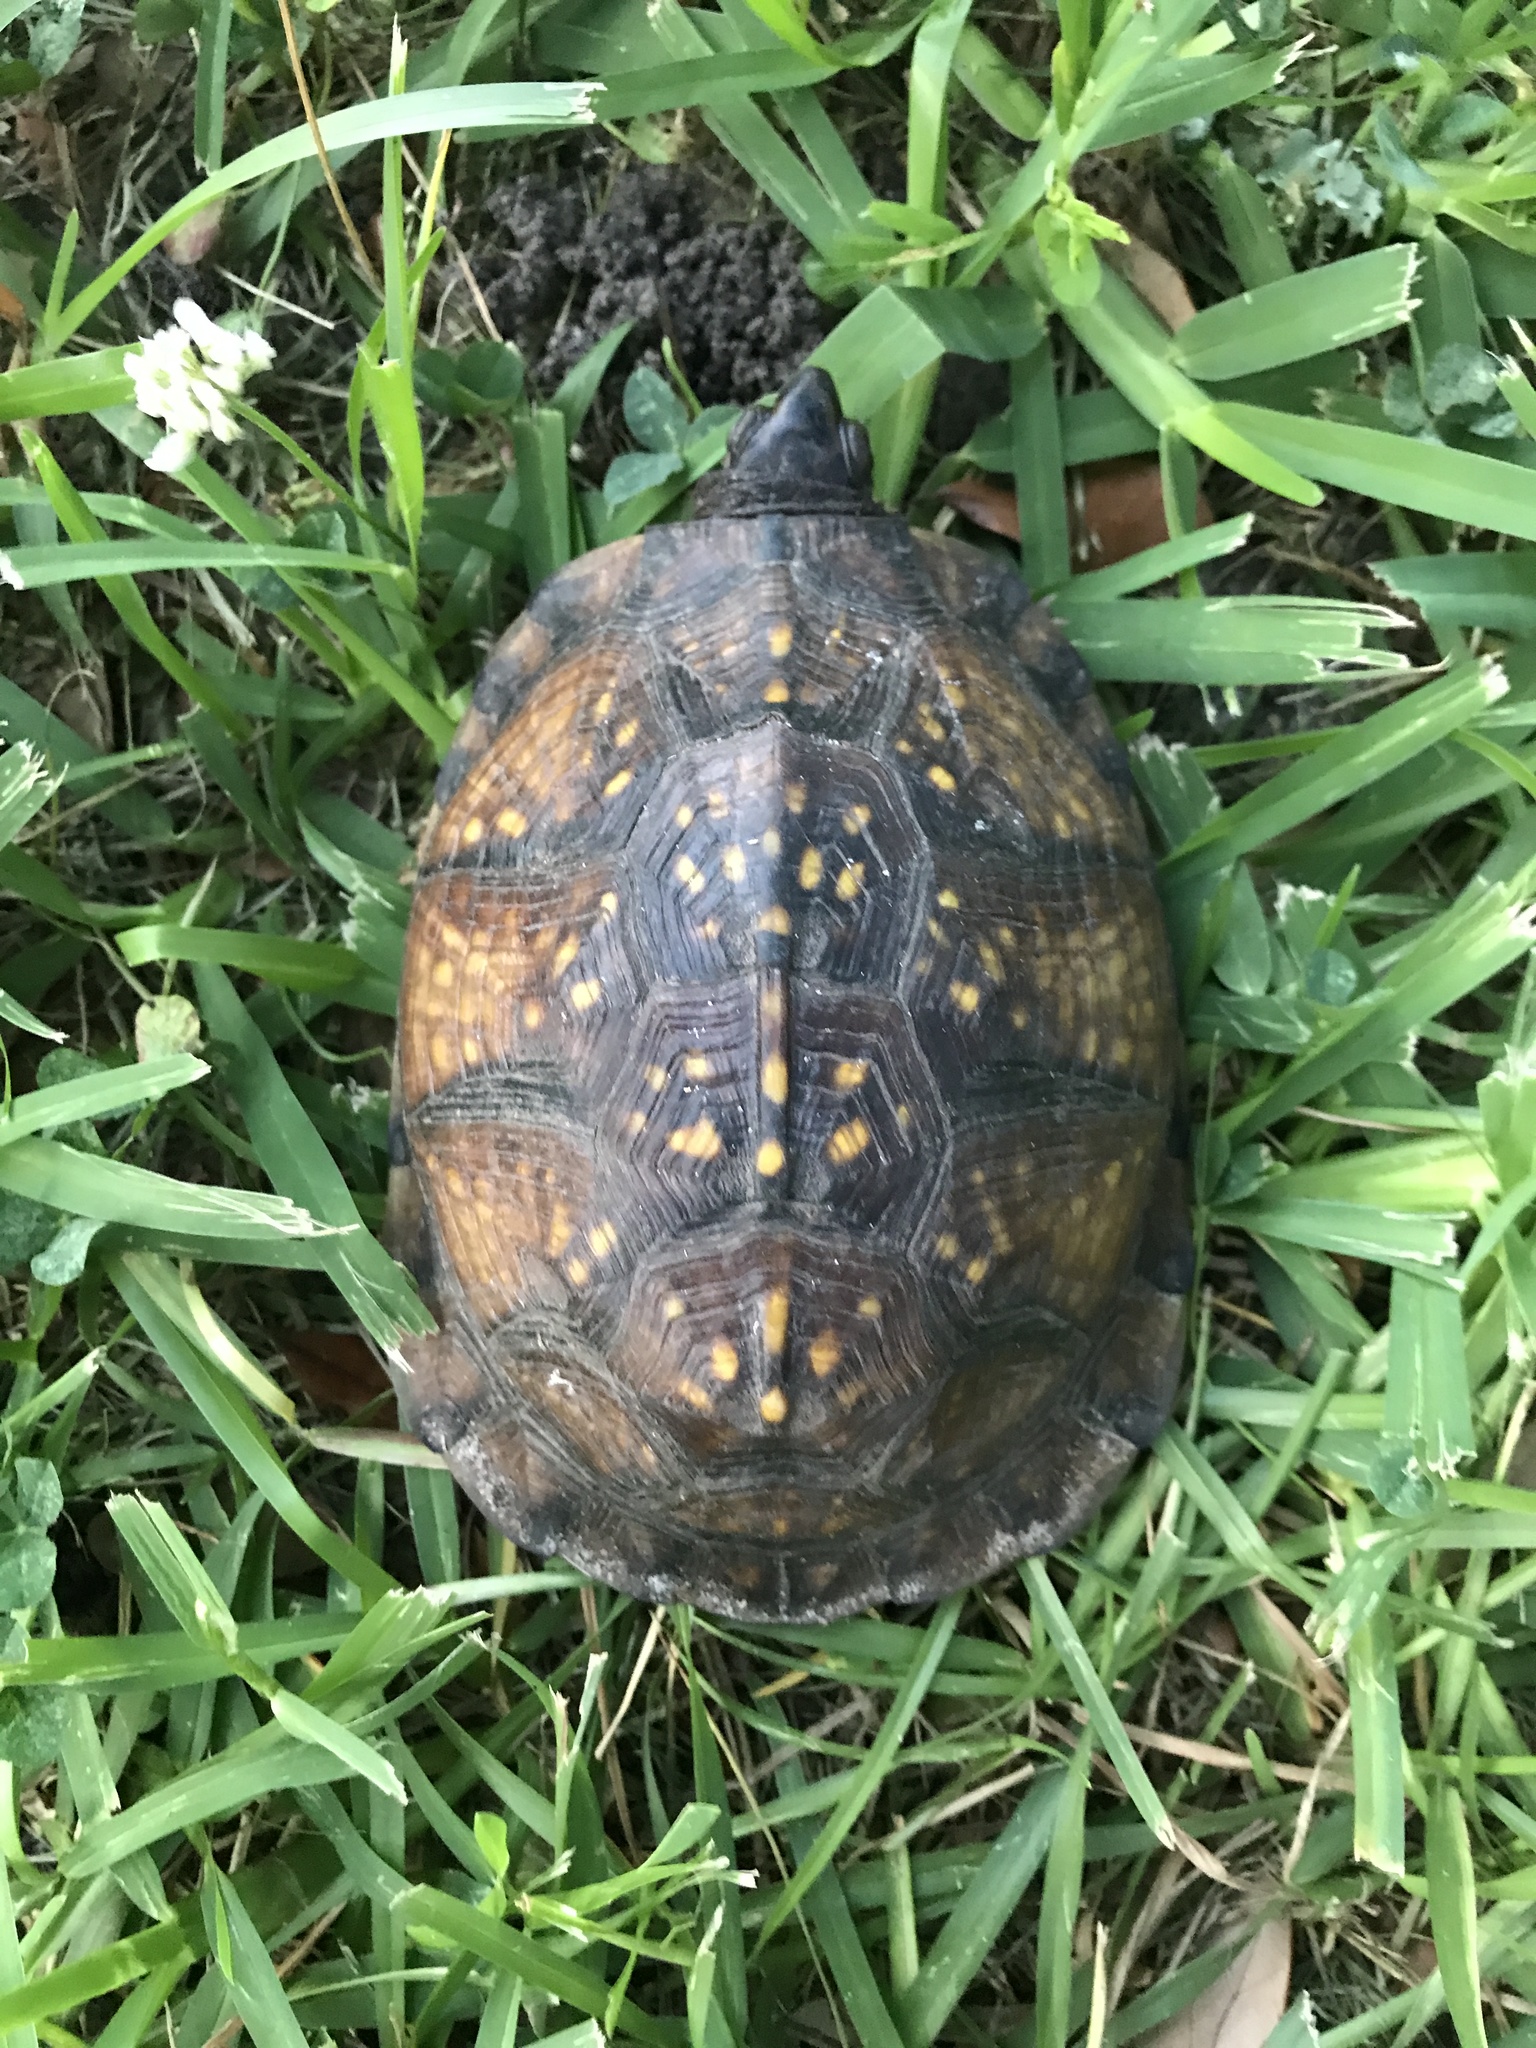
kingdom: Animalia
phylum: Chordata
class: Testudines
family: Emydidae
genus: Terrapene
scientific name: Terrapene carolina
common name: Common box turtle
